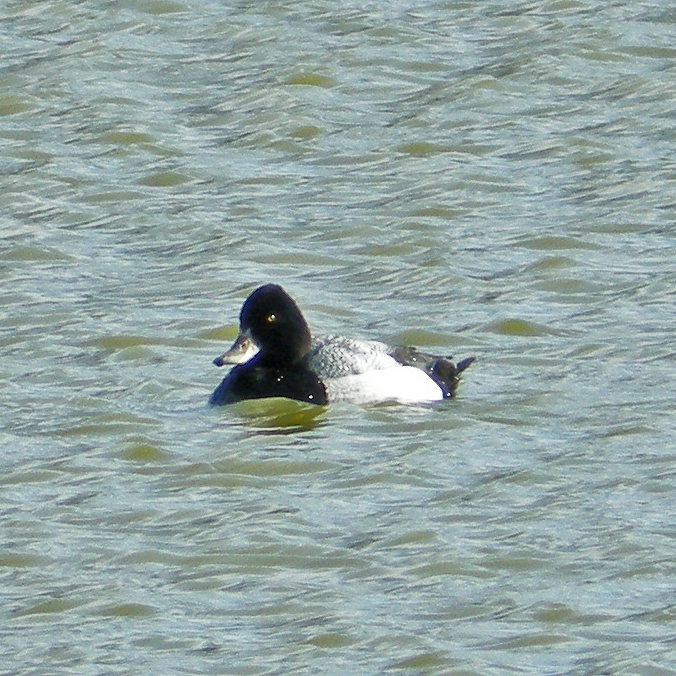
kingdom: Animalia
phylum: Chordata
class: Aves
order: Anseriformes
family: Anatidae
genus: Aythya
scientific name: Aythya affinis
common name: Lesser scaup
